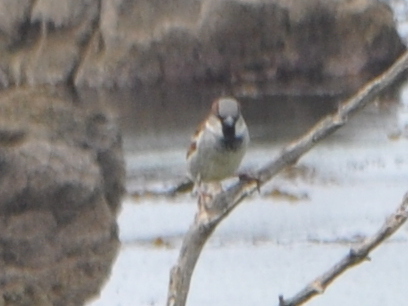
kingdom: Animalia
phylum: Chordata
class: Aves
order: Passeriformes
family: Passeridae
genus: Passer
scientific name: Passer domesticus
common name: House sparrow
